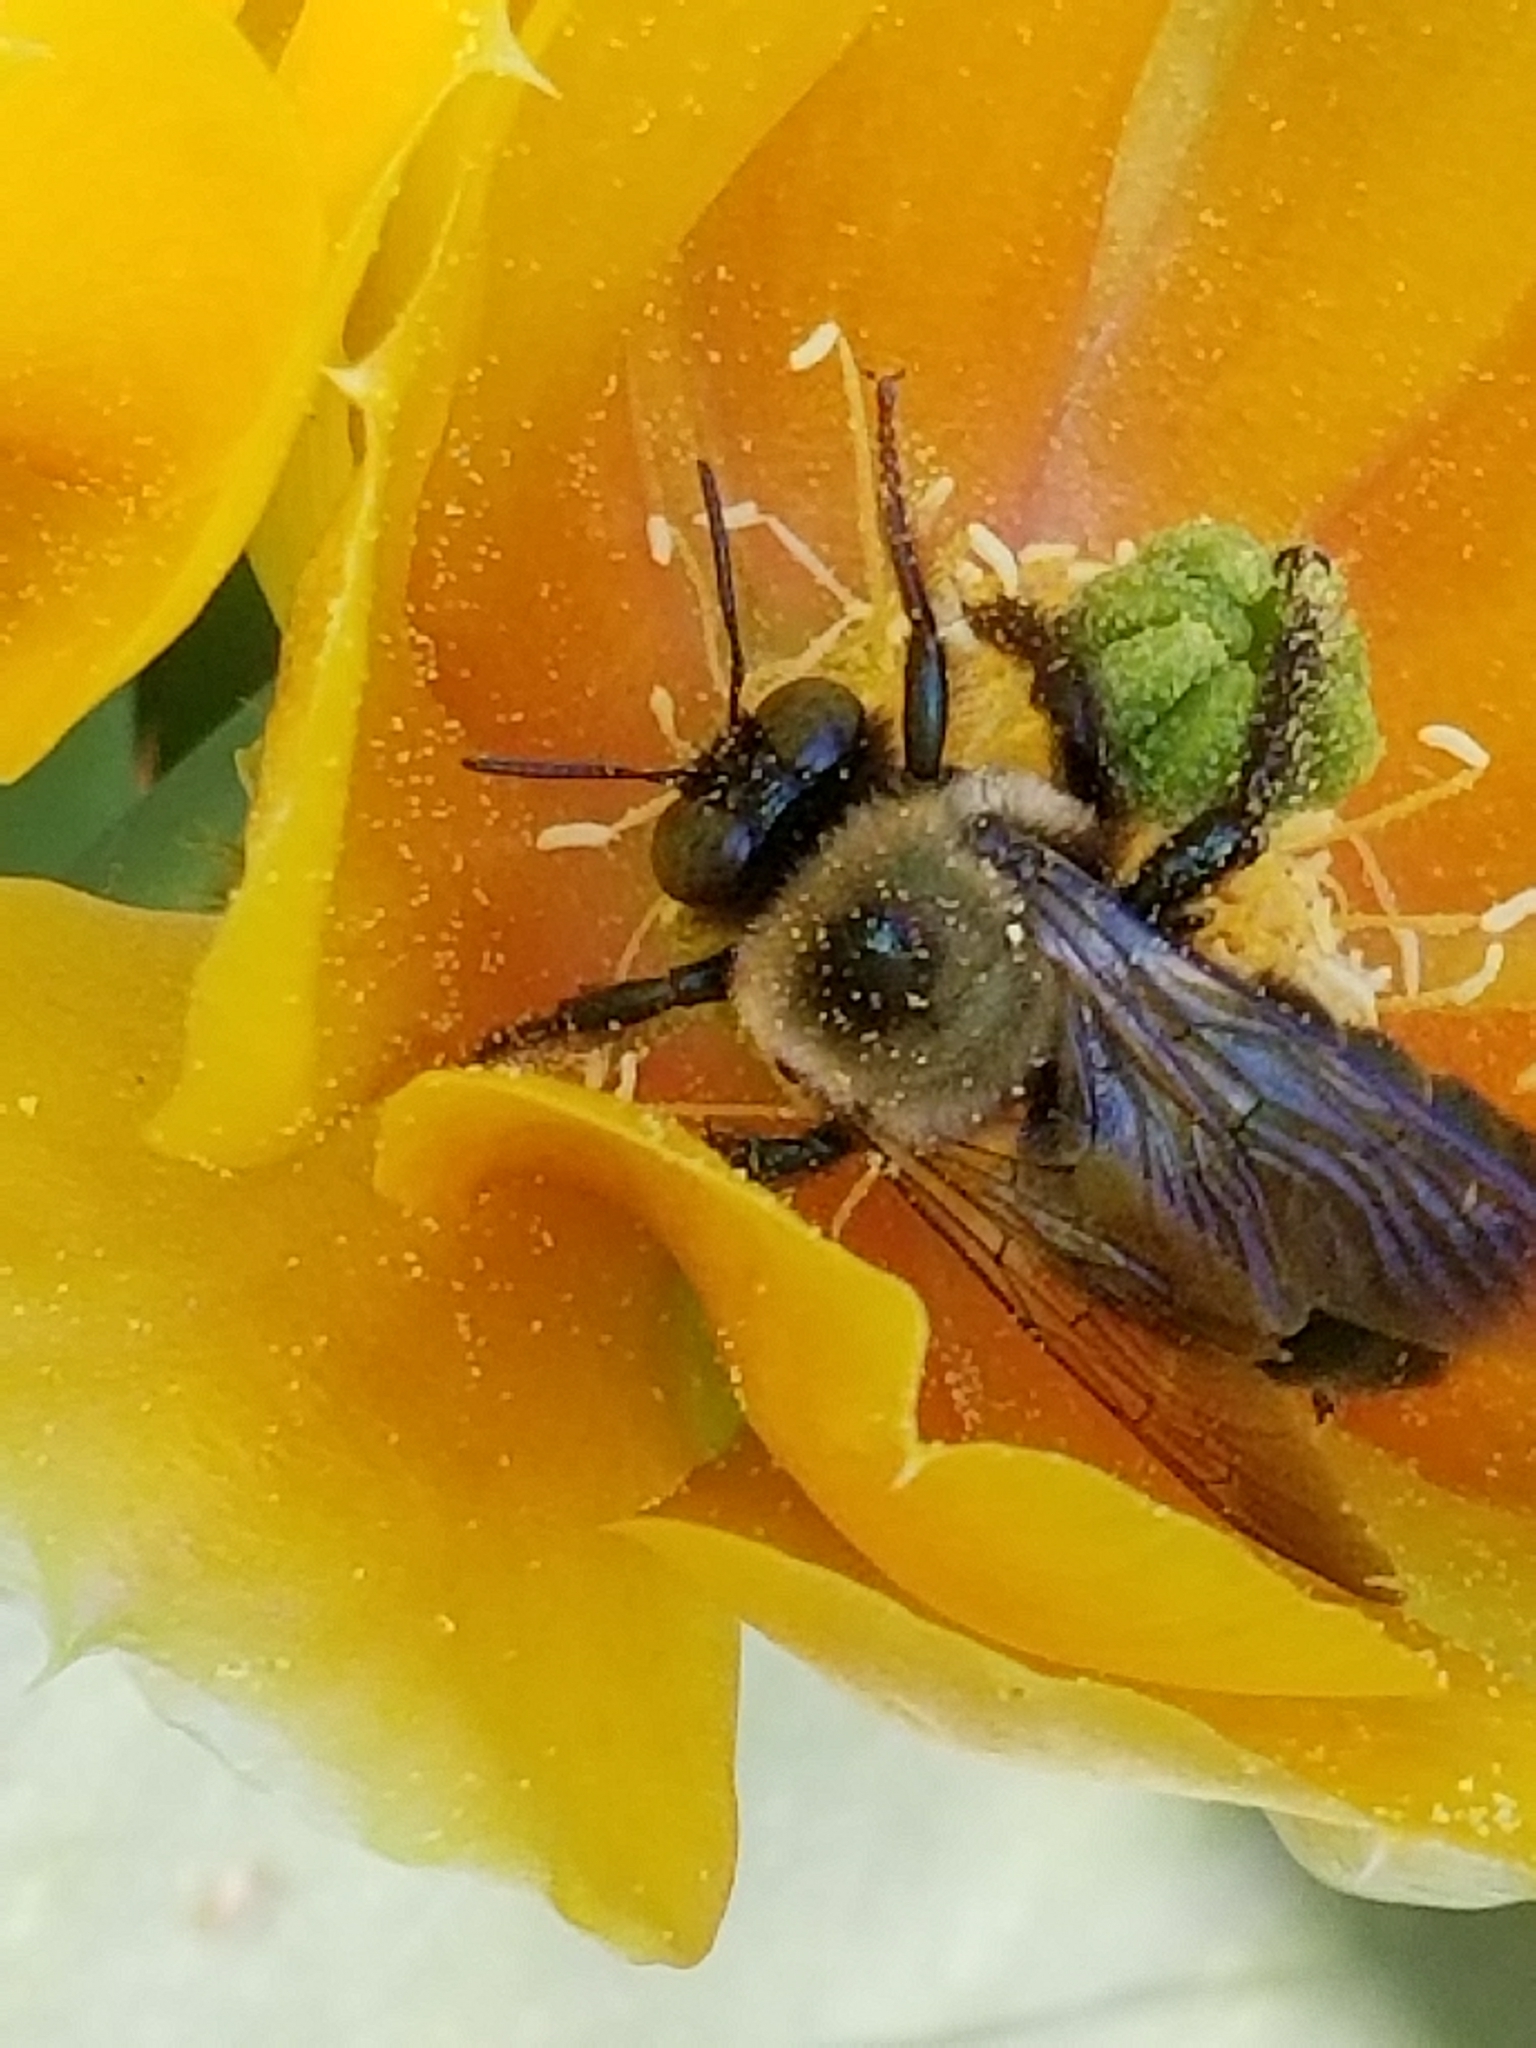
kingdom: Animalia
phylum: Arthropoda
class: Insecta
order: Hymenoptera
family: Apidae
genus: Xylocopa
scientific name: Xylocopa virginica
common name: Carpenter bee
